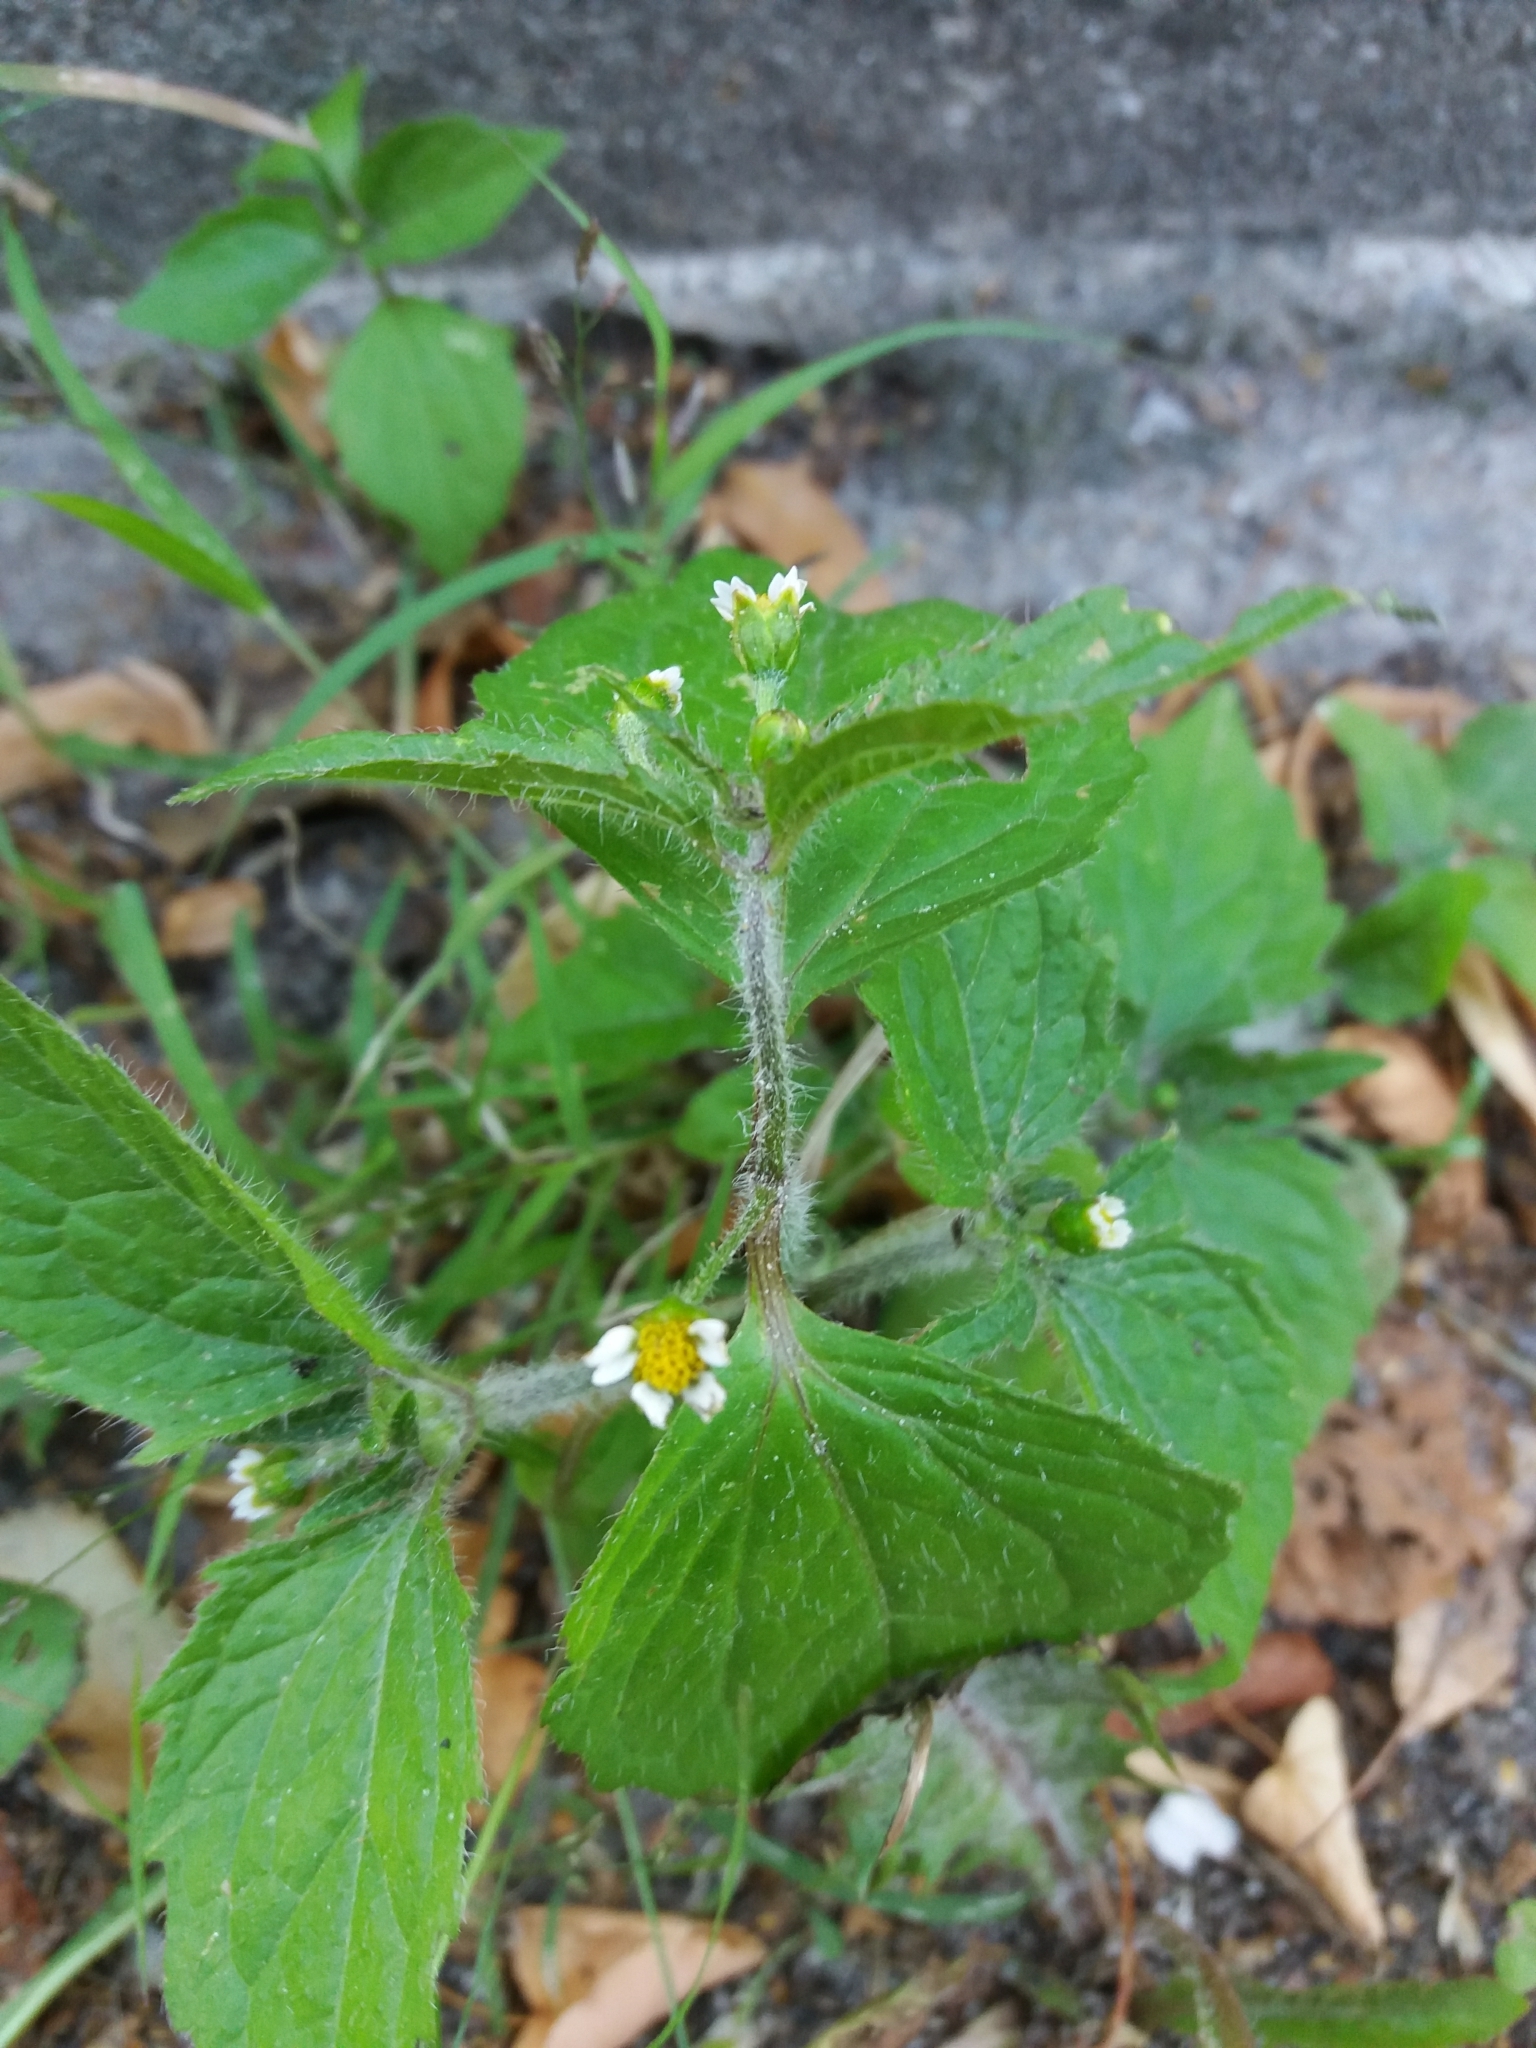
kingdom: Plantae
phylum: Tracheophyta
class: Magnoliopsida
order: Asterales
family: Asteraceae
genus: Galinsoga
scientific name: Galinsoga quadriradiata
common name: Shaggy soldier
